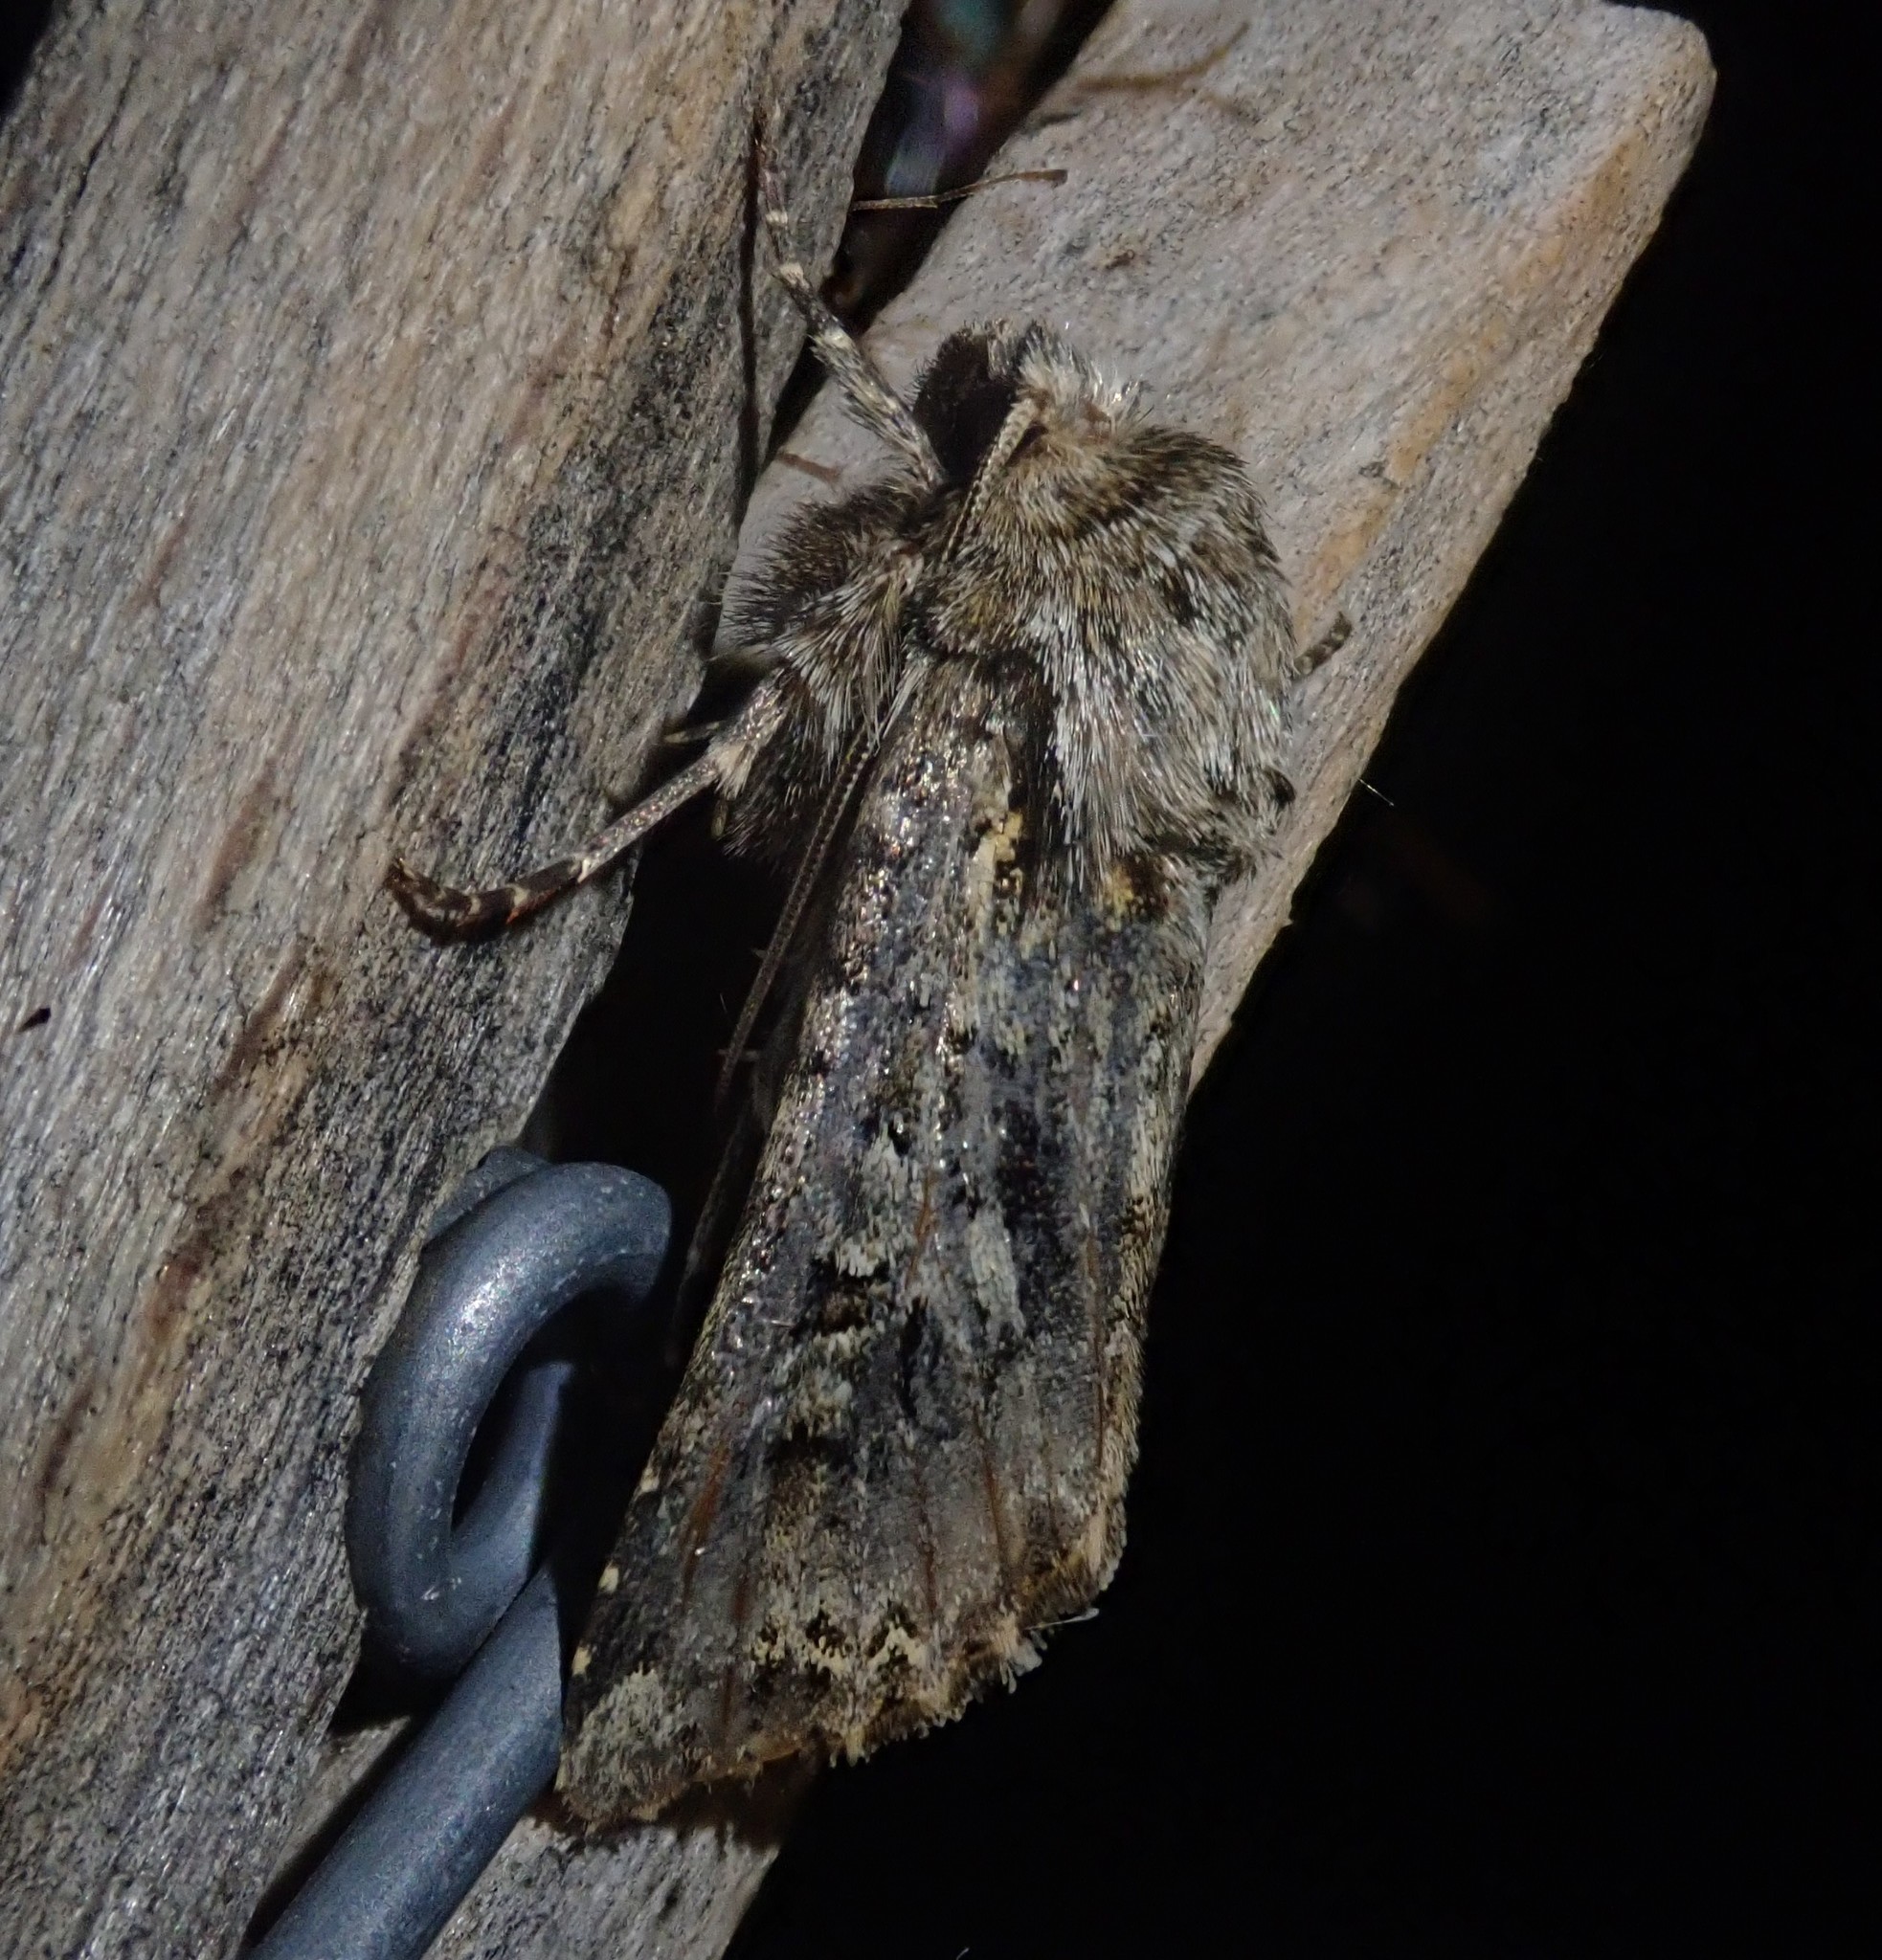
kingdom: Animalia
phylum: Arthropoda
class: Insecta
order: Lepidoptera
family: Noctuidae
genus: Hada
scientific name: Hada plebeja
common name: Shears
